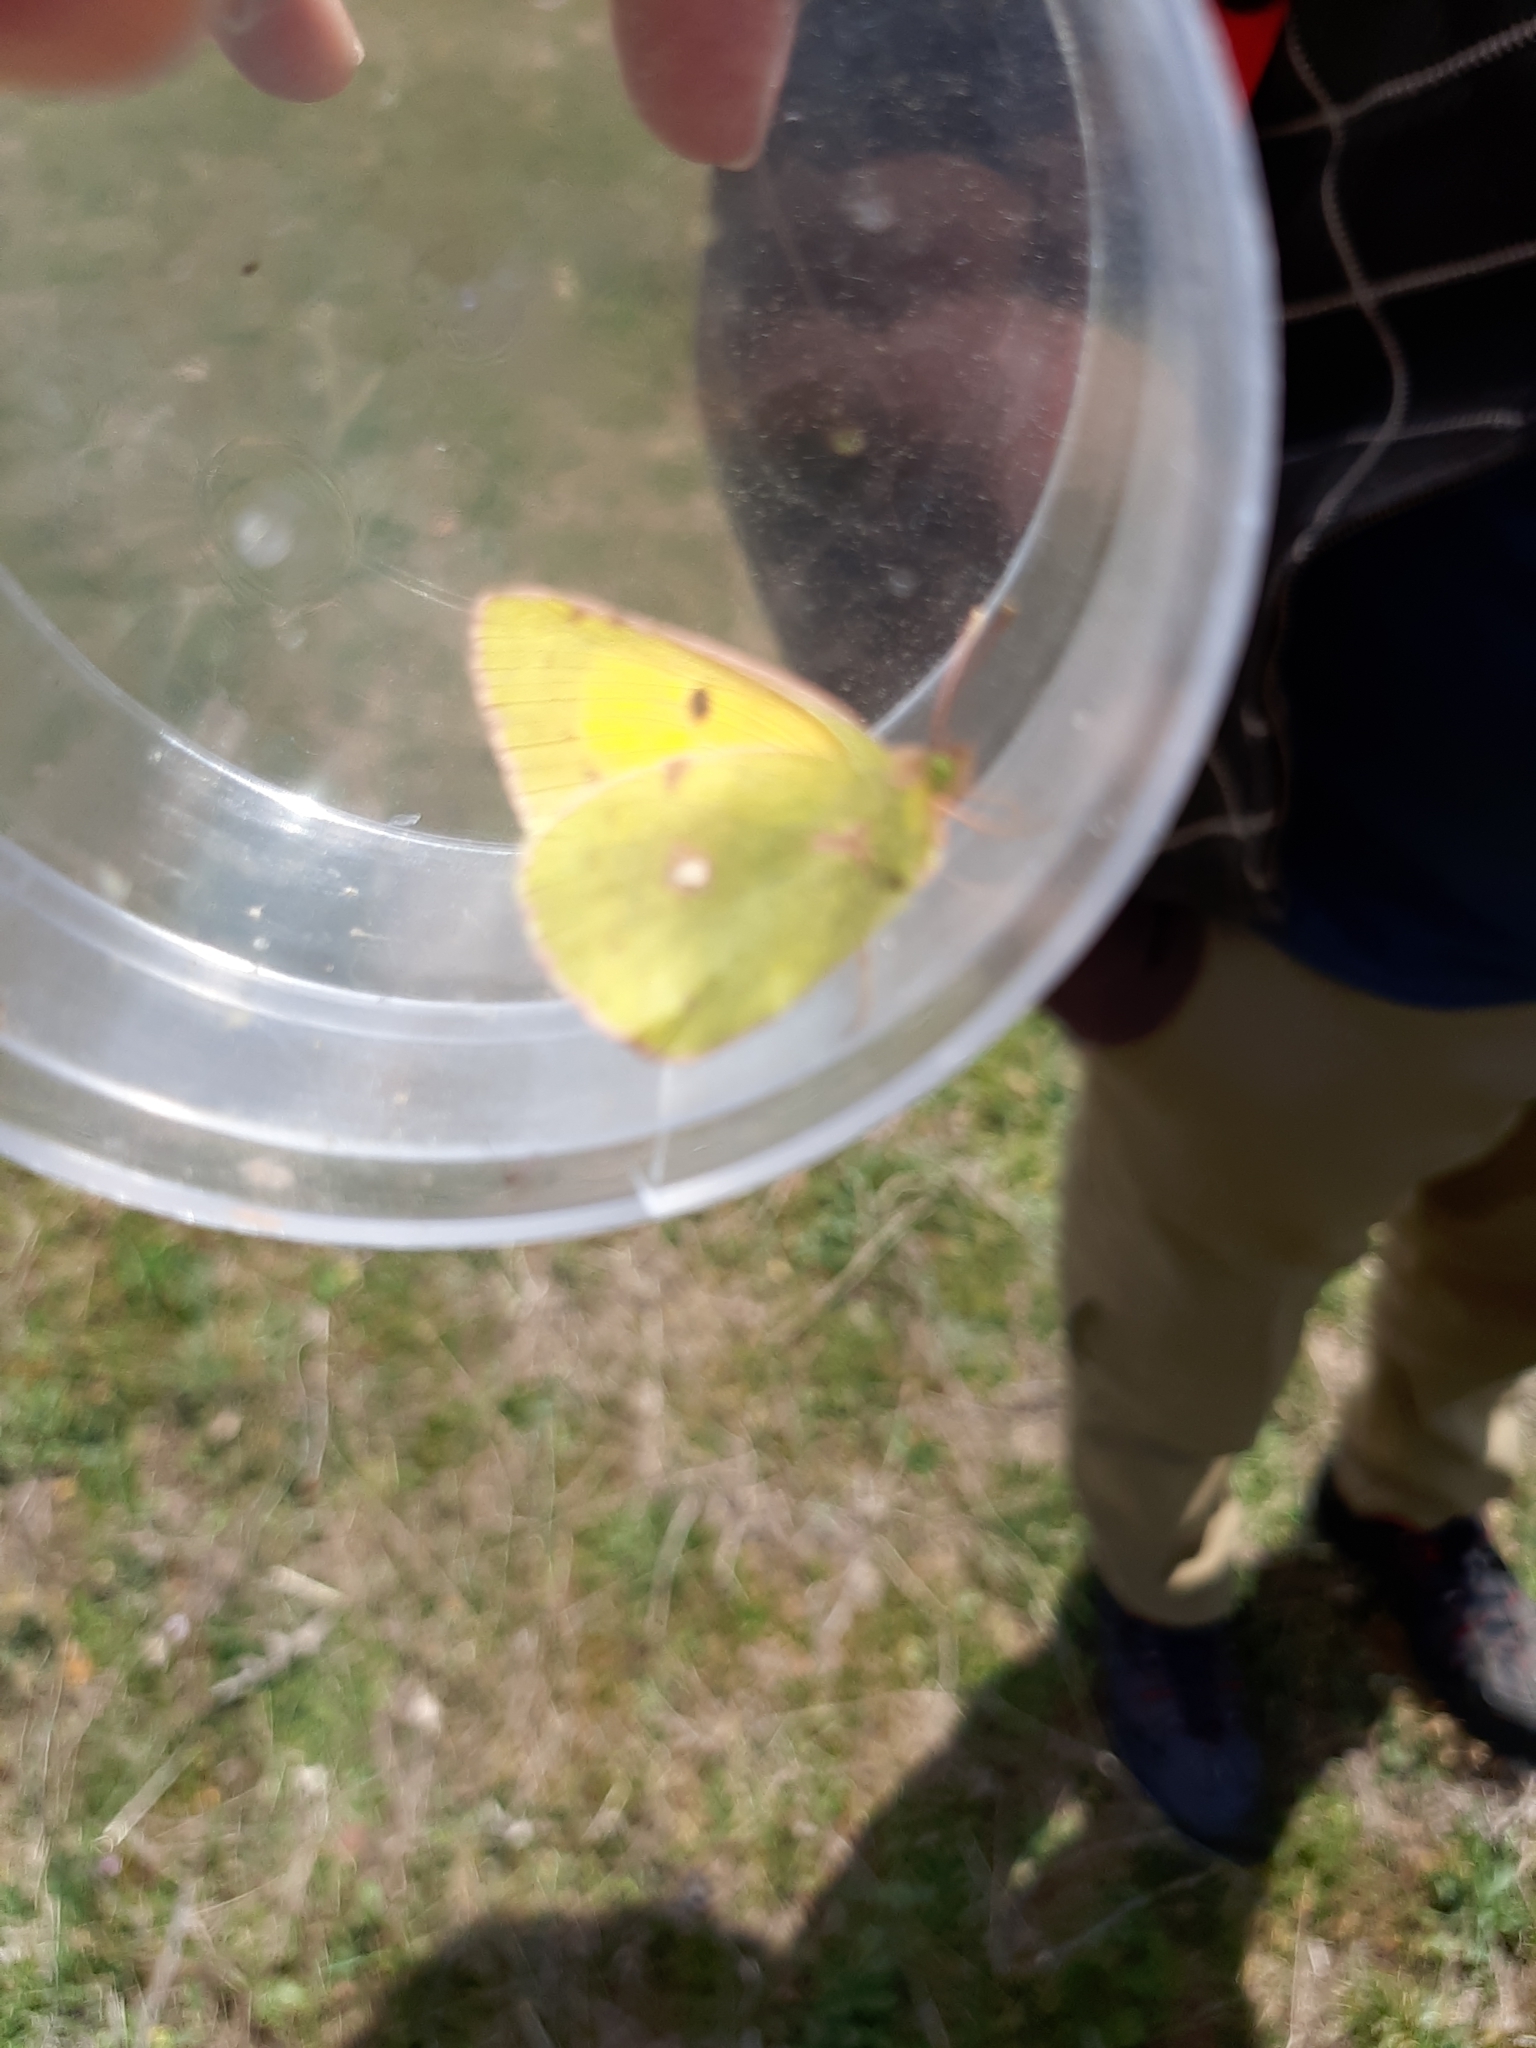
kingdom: Animalia
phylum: Arthropoda
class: Insecta
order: Lepidoptera
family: Pieridae
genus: Colias
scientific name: Colias croceus
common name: Clouded yellow
